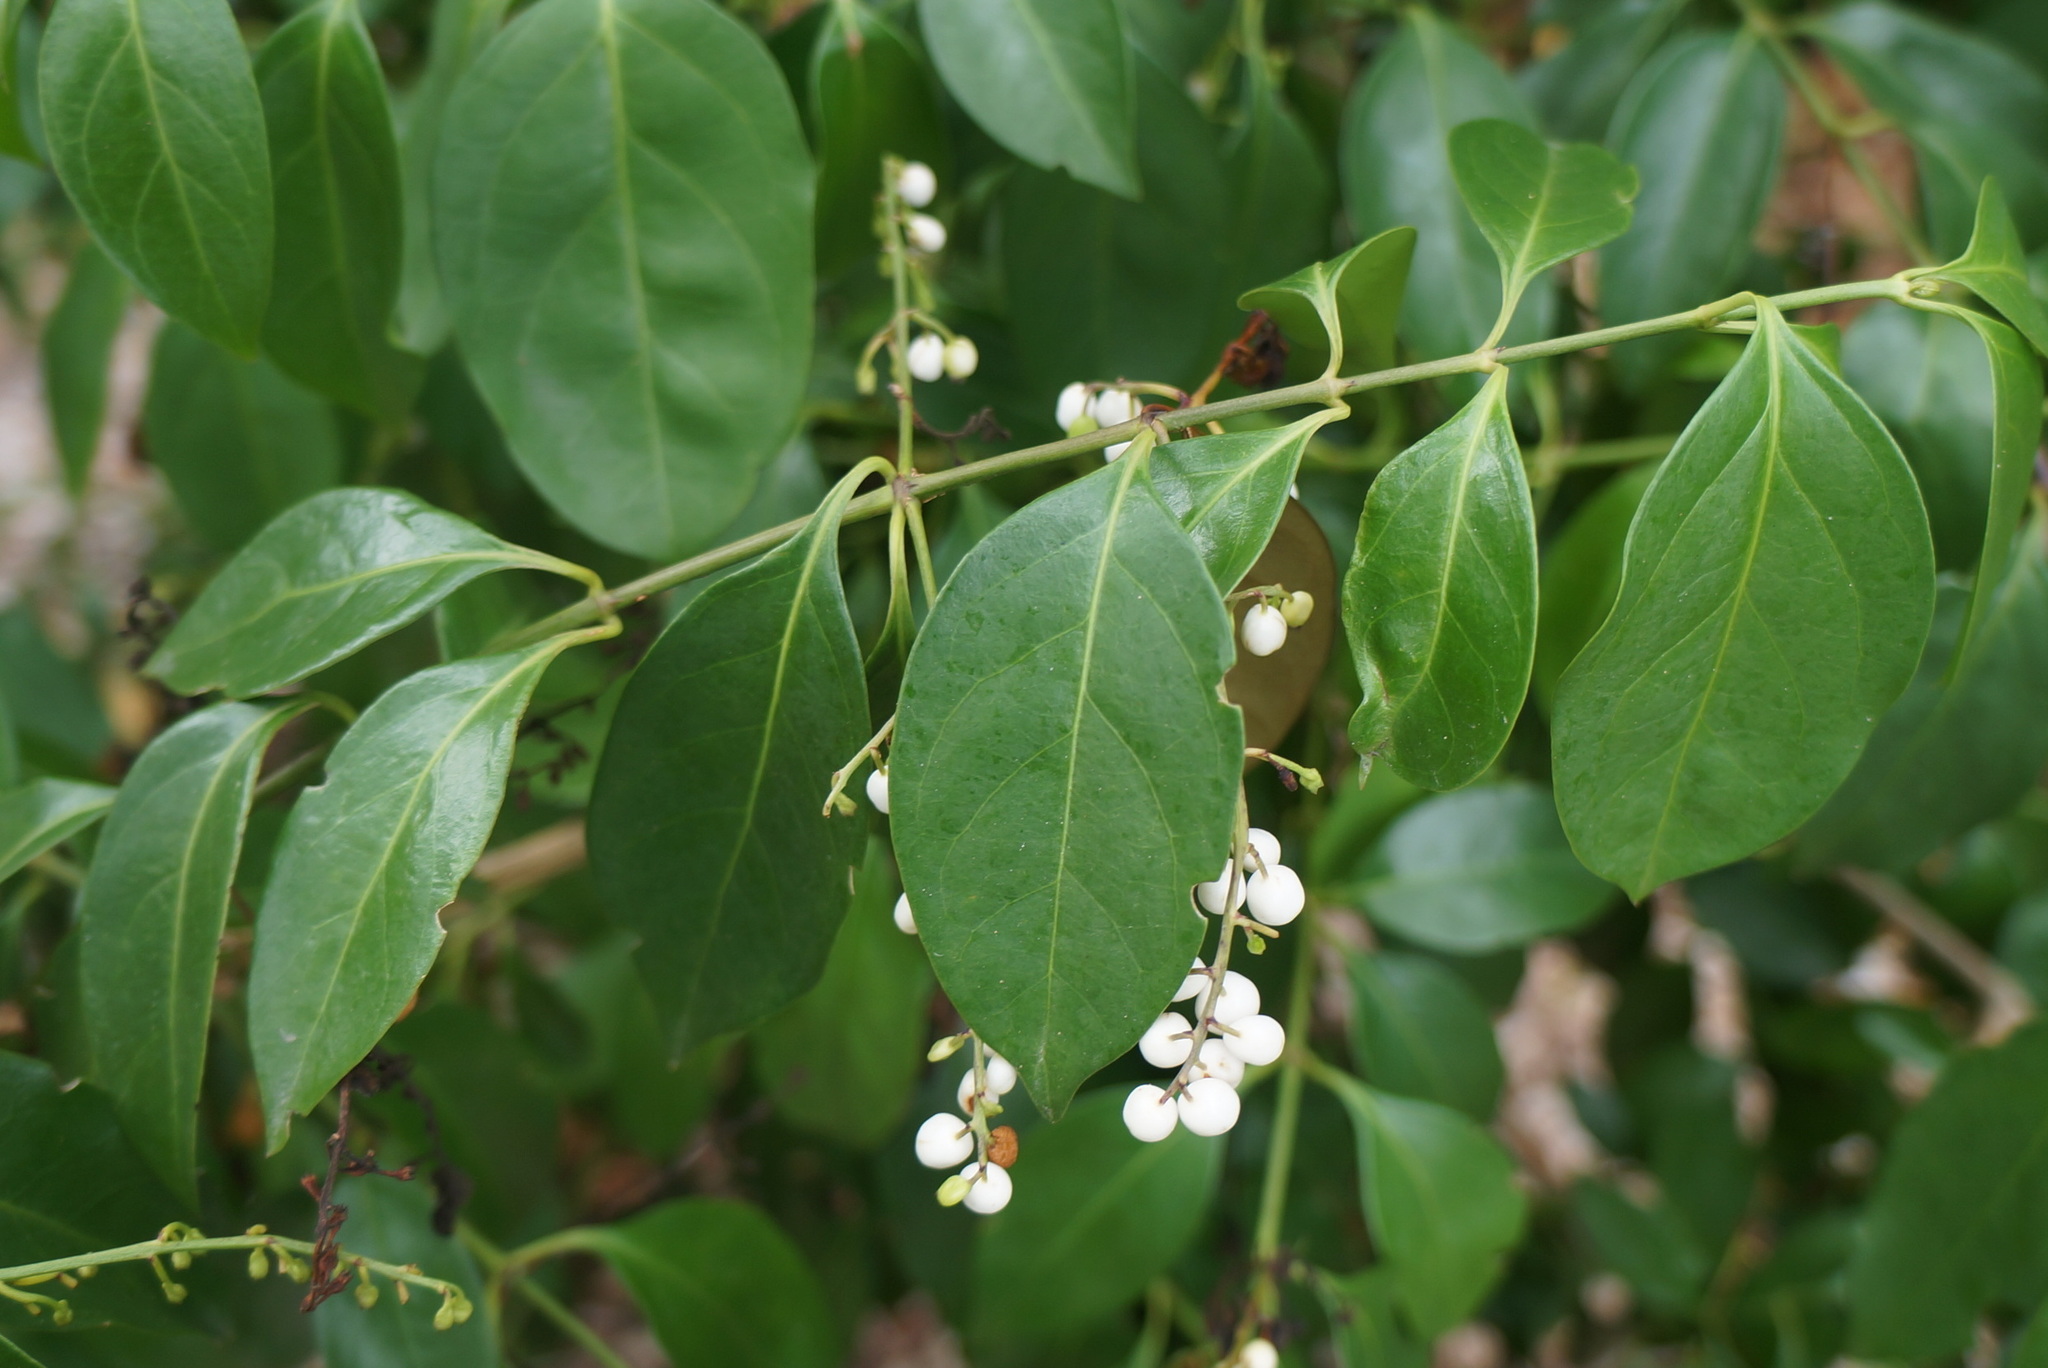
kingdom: Plantae
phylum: Tracheophyta
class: Magnoliopsida
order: Gentianales
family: Rubiaceae
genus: Chiococca
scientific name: Chiococca alba
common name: Snowberry
